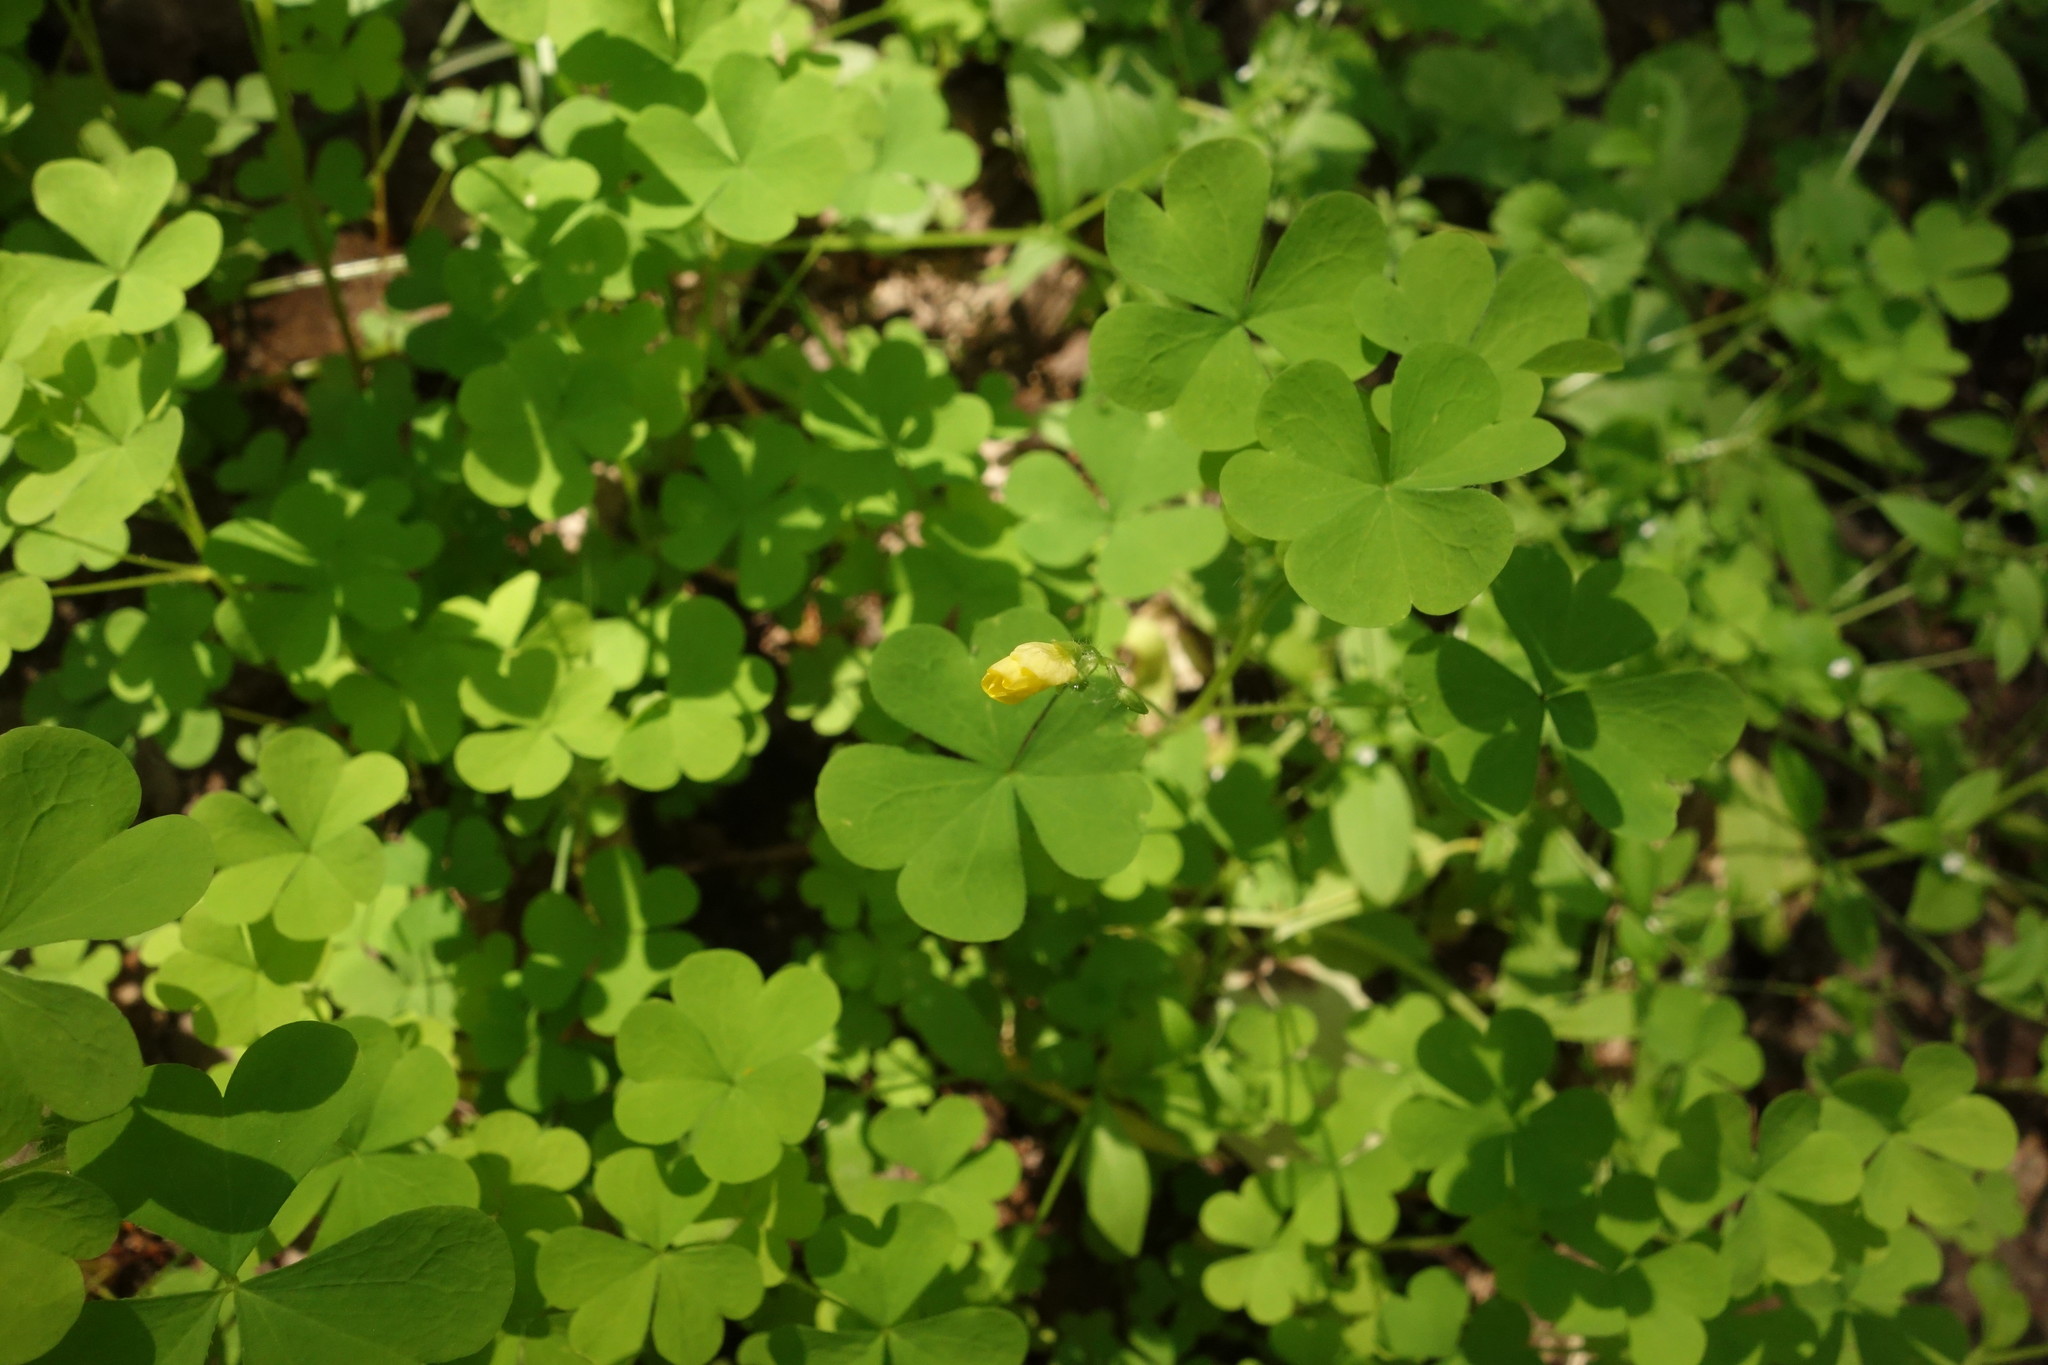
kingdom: Plantae
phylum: Tracheophyta
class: Magnoliopsida
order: Oxalidales
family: Oxalidaceae
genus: Oxalis
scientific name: Oxalis stricta
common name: Upright yellow-sorrel
